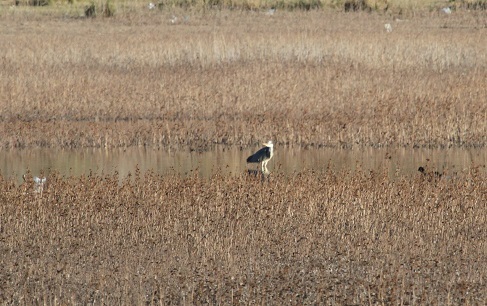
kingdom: Animalia
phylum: Chordata
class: Aves
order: Pelecaniformes
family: Ardeidae
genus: Ardea
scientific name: Ardea cinerea
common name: Grey heron
